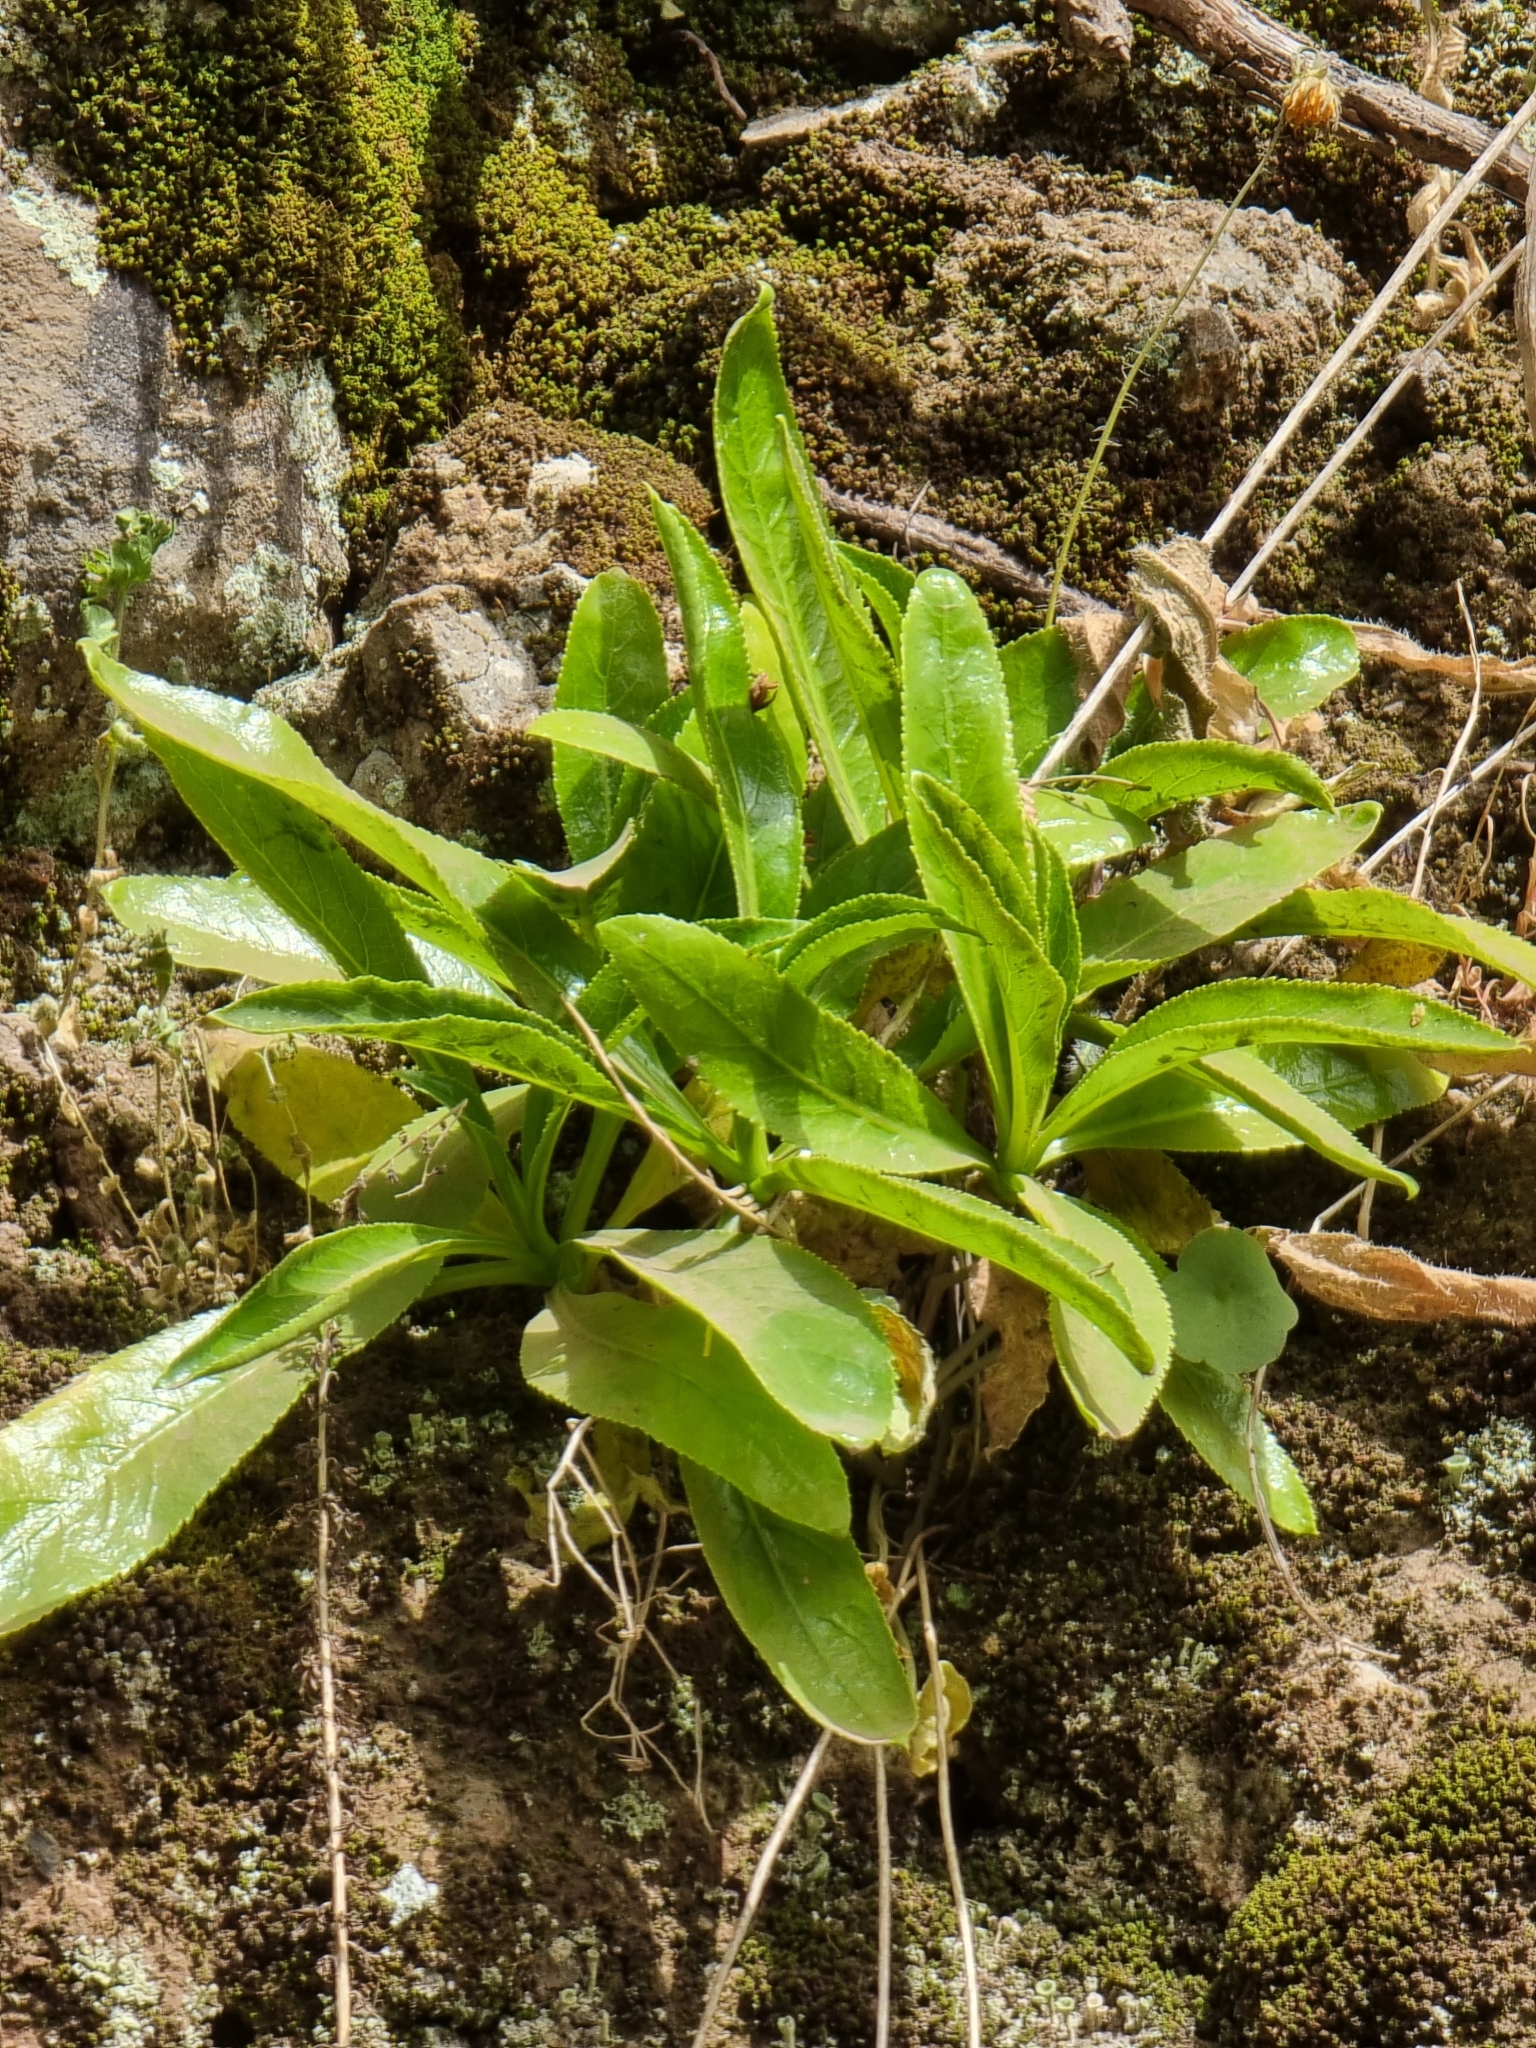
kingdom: Plantae
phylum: Tracheophyta
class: Magnoliopsida
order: Asterales
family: Campanulaceae
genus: Musschia
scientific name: Musschia aurea
